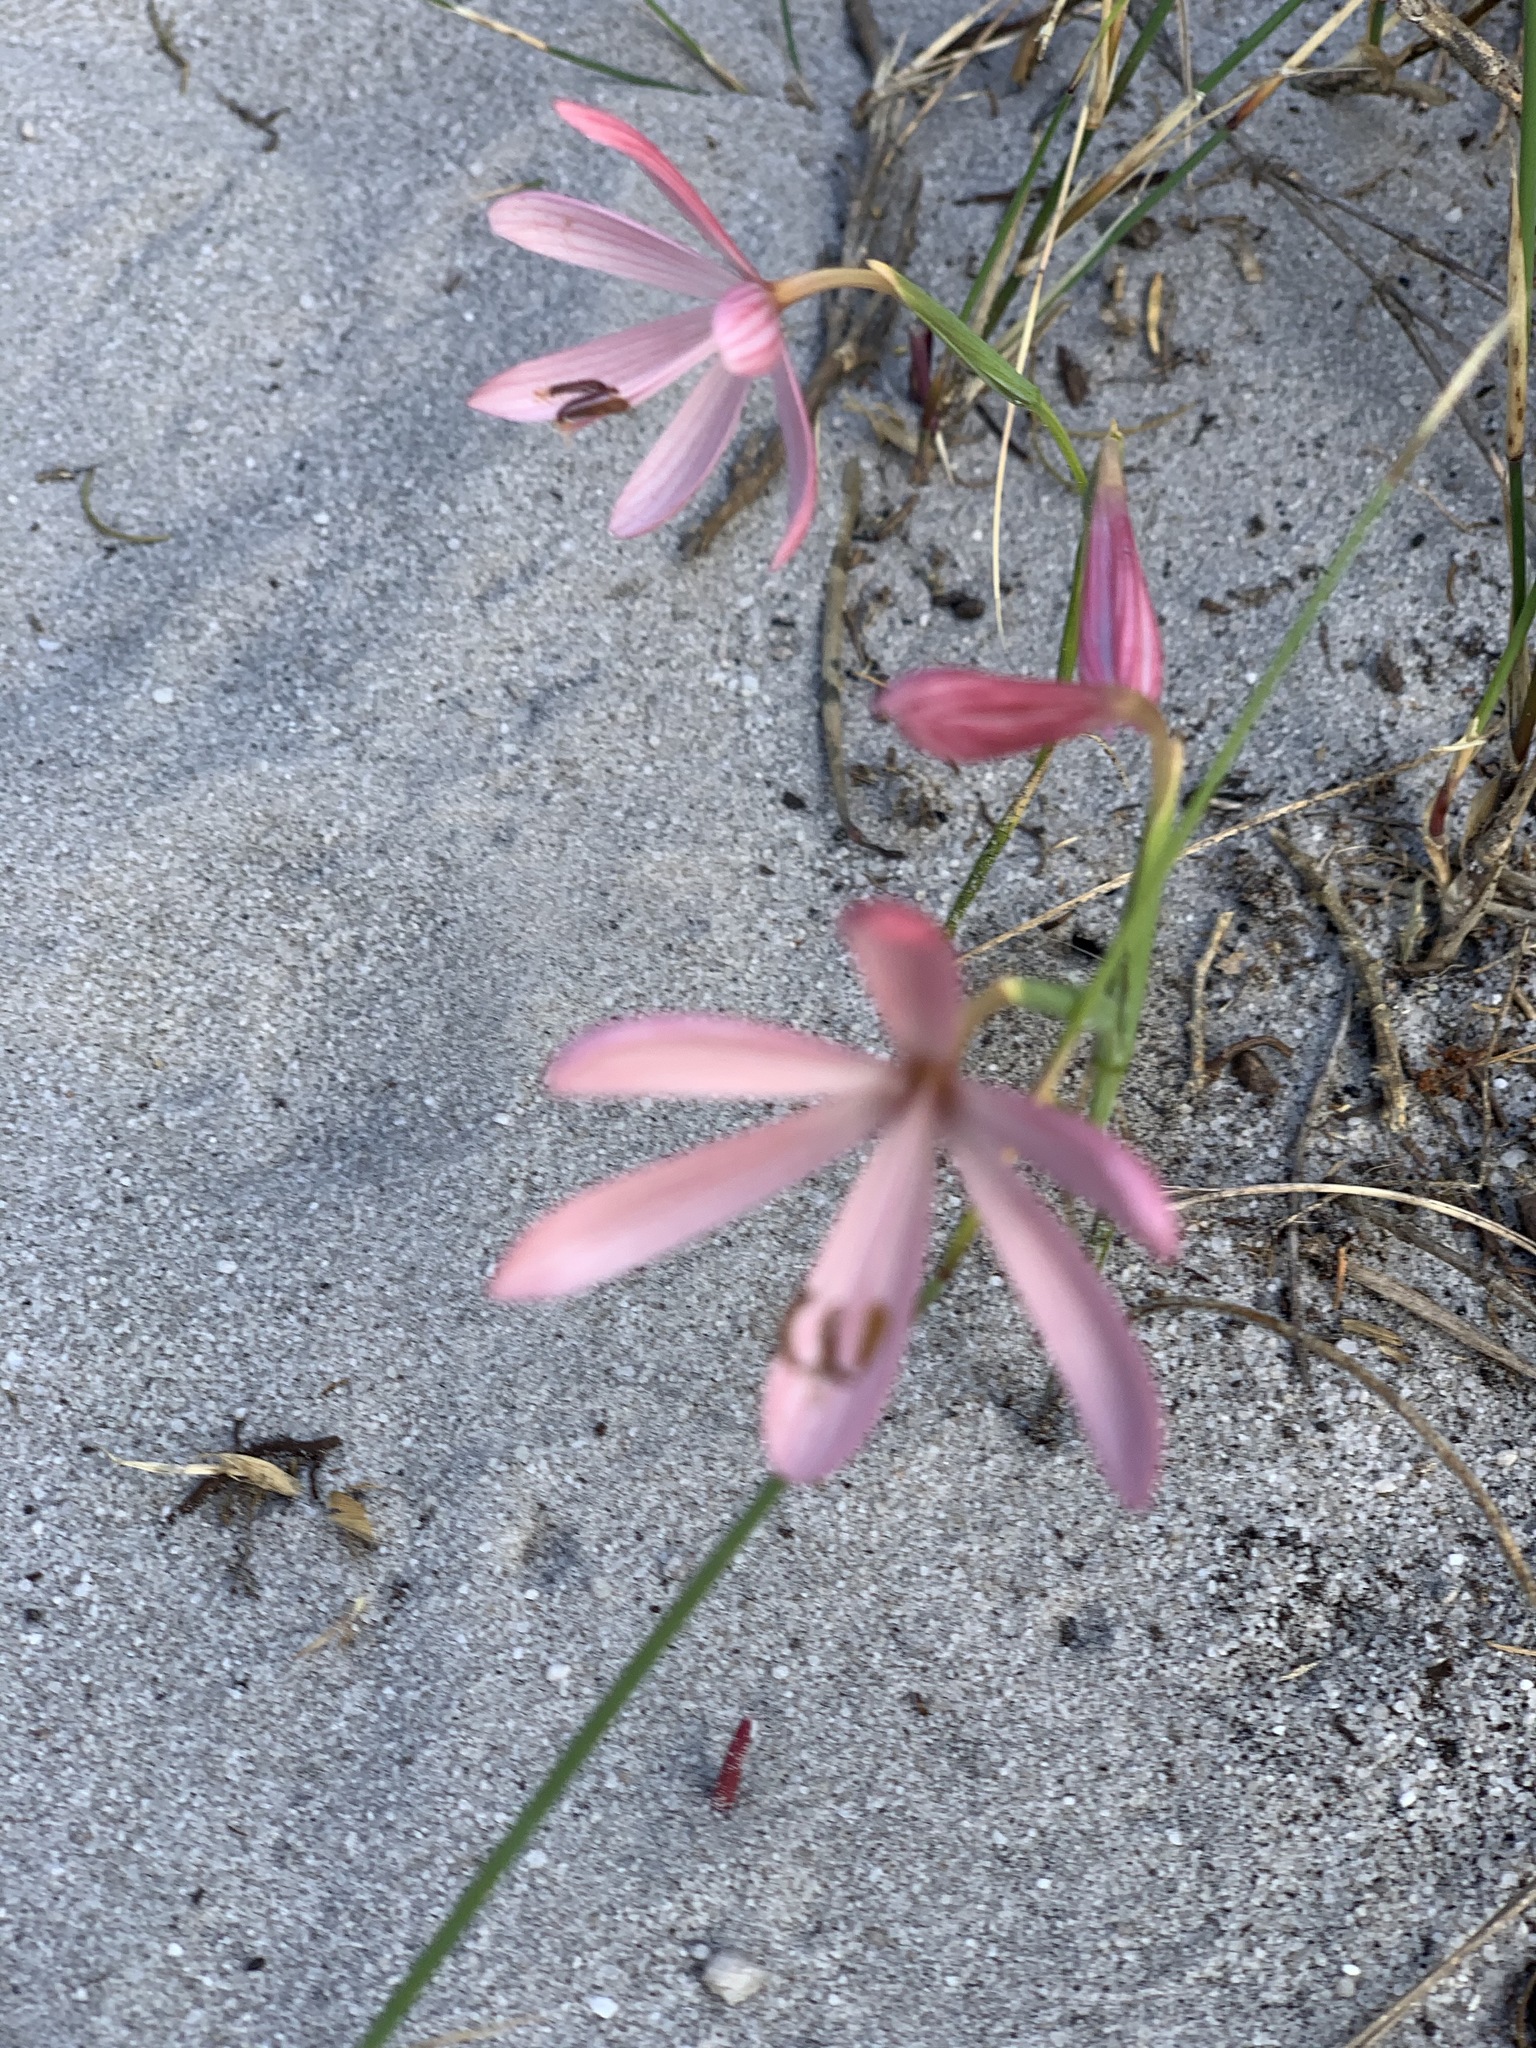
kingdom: Plantae
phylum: Tracheophyta
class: Liliopsida
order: Asparagales
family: Iridaceae
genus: Geissorhiza
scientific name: Geissorhiza bonae-spei
